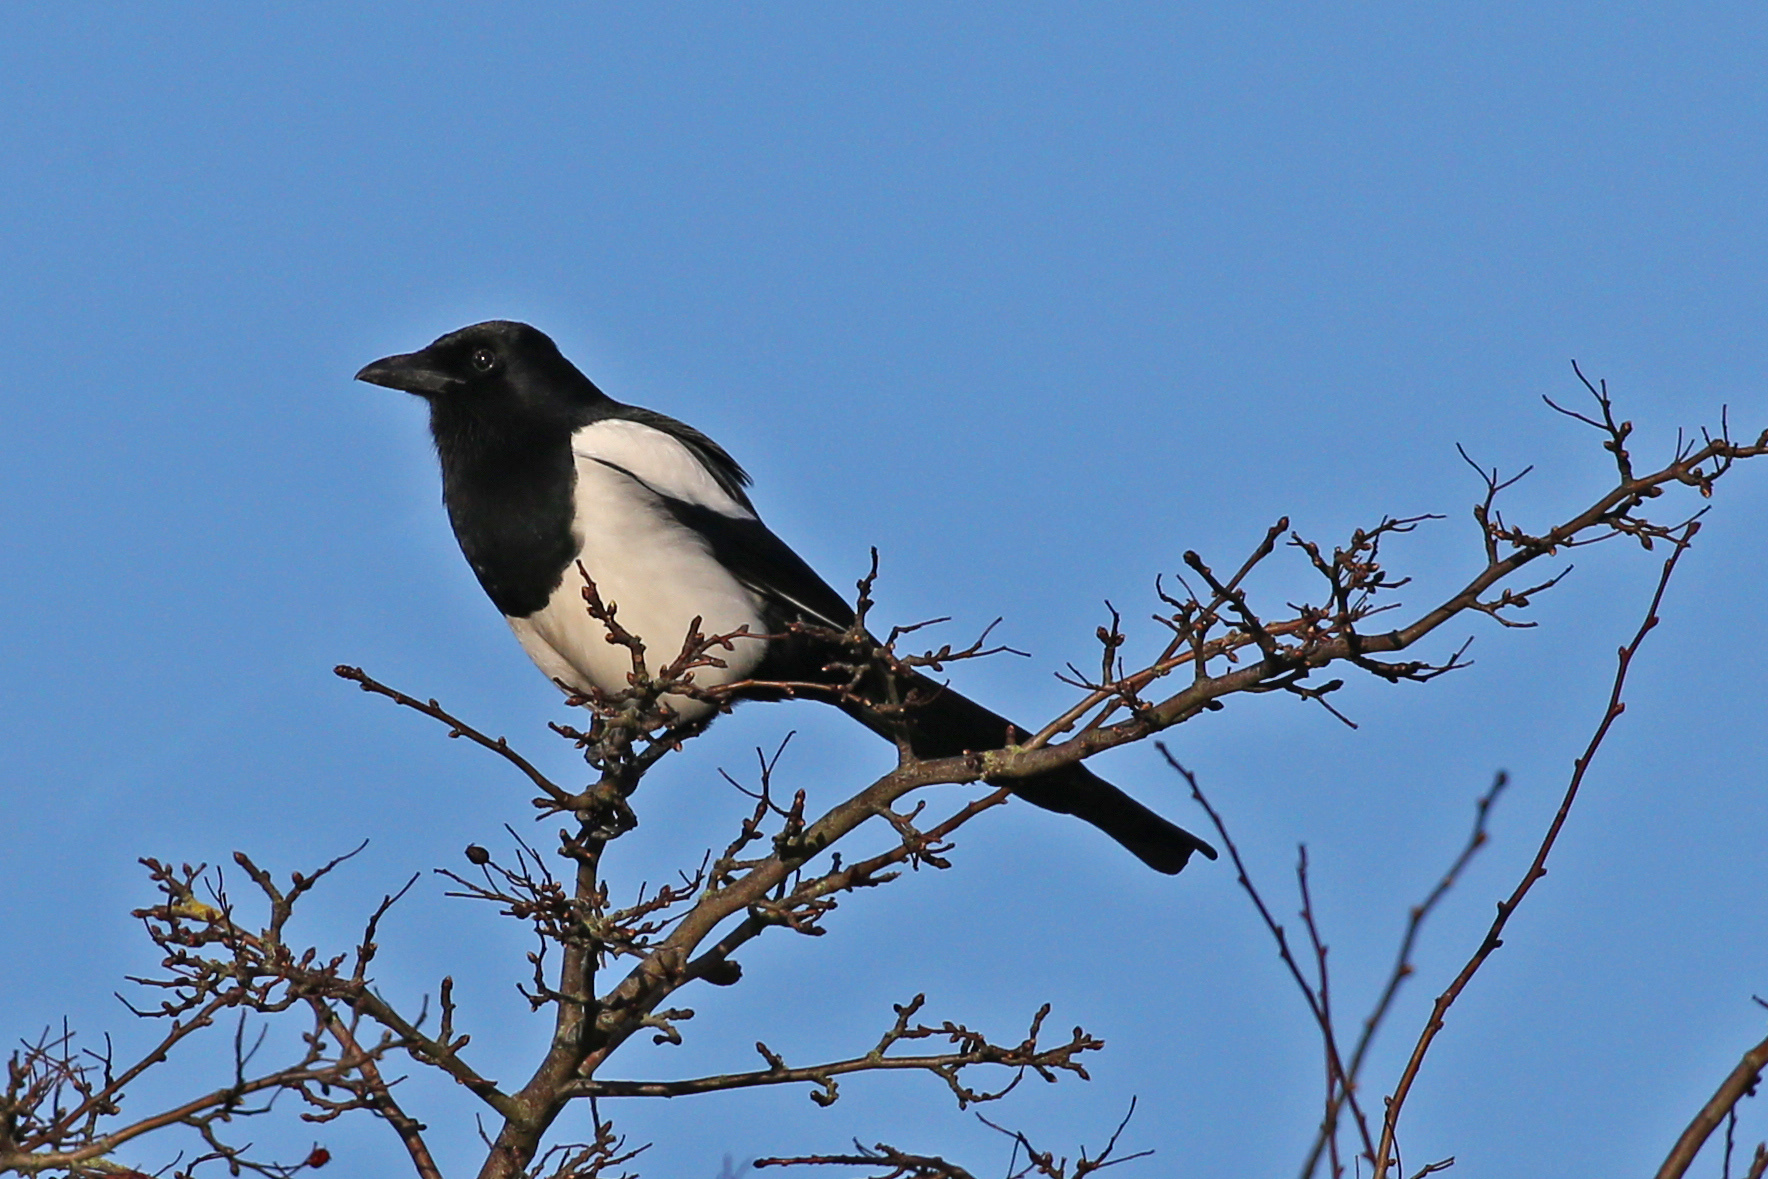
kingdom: Animalia
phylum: Chordata
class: Aves
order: Passeriformes
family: Corvidae
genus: Pica
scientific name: Pica pica
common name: Eurasian magpie
